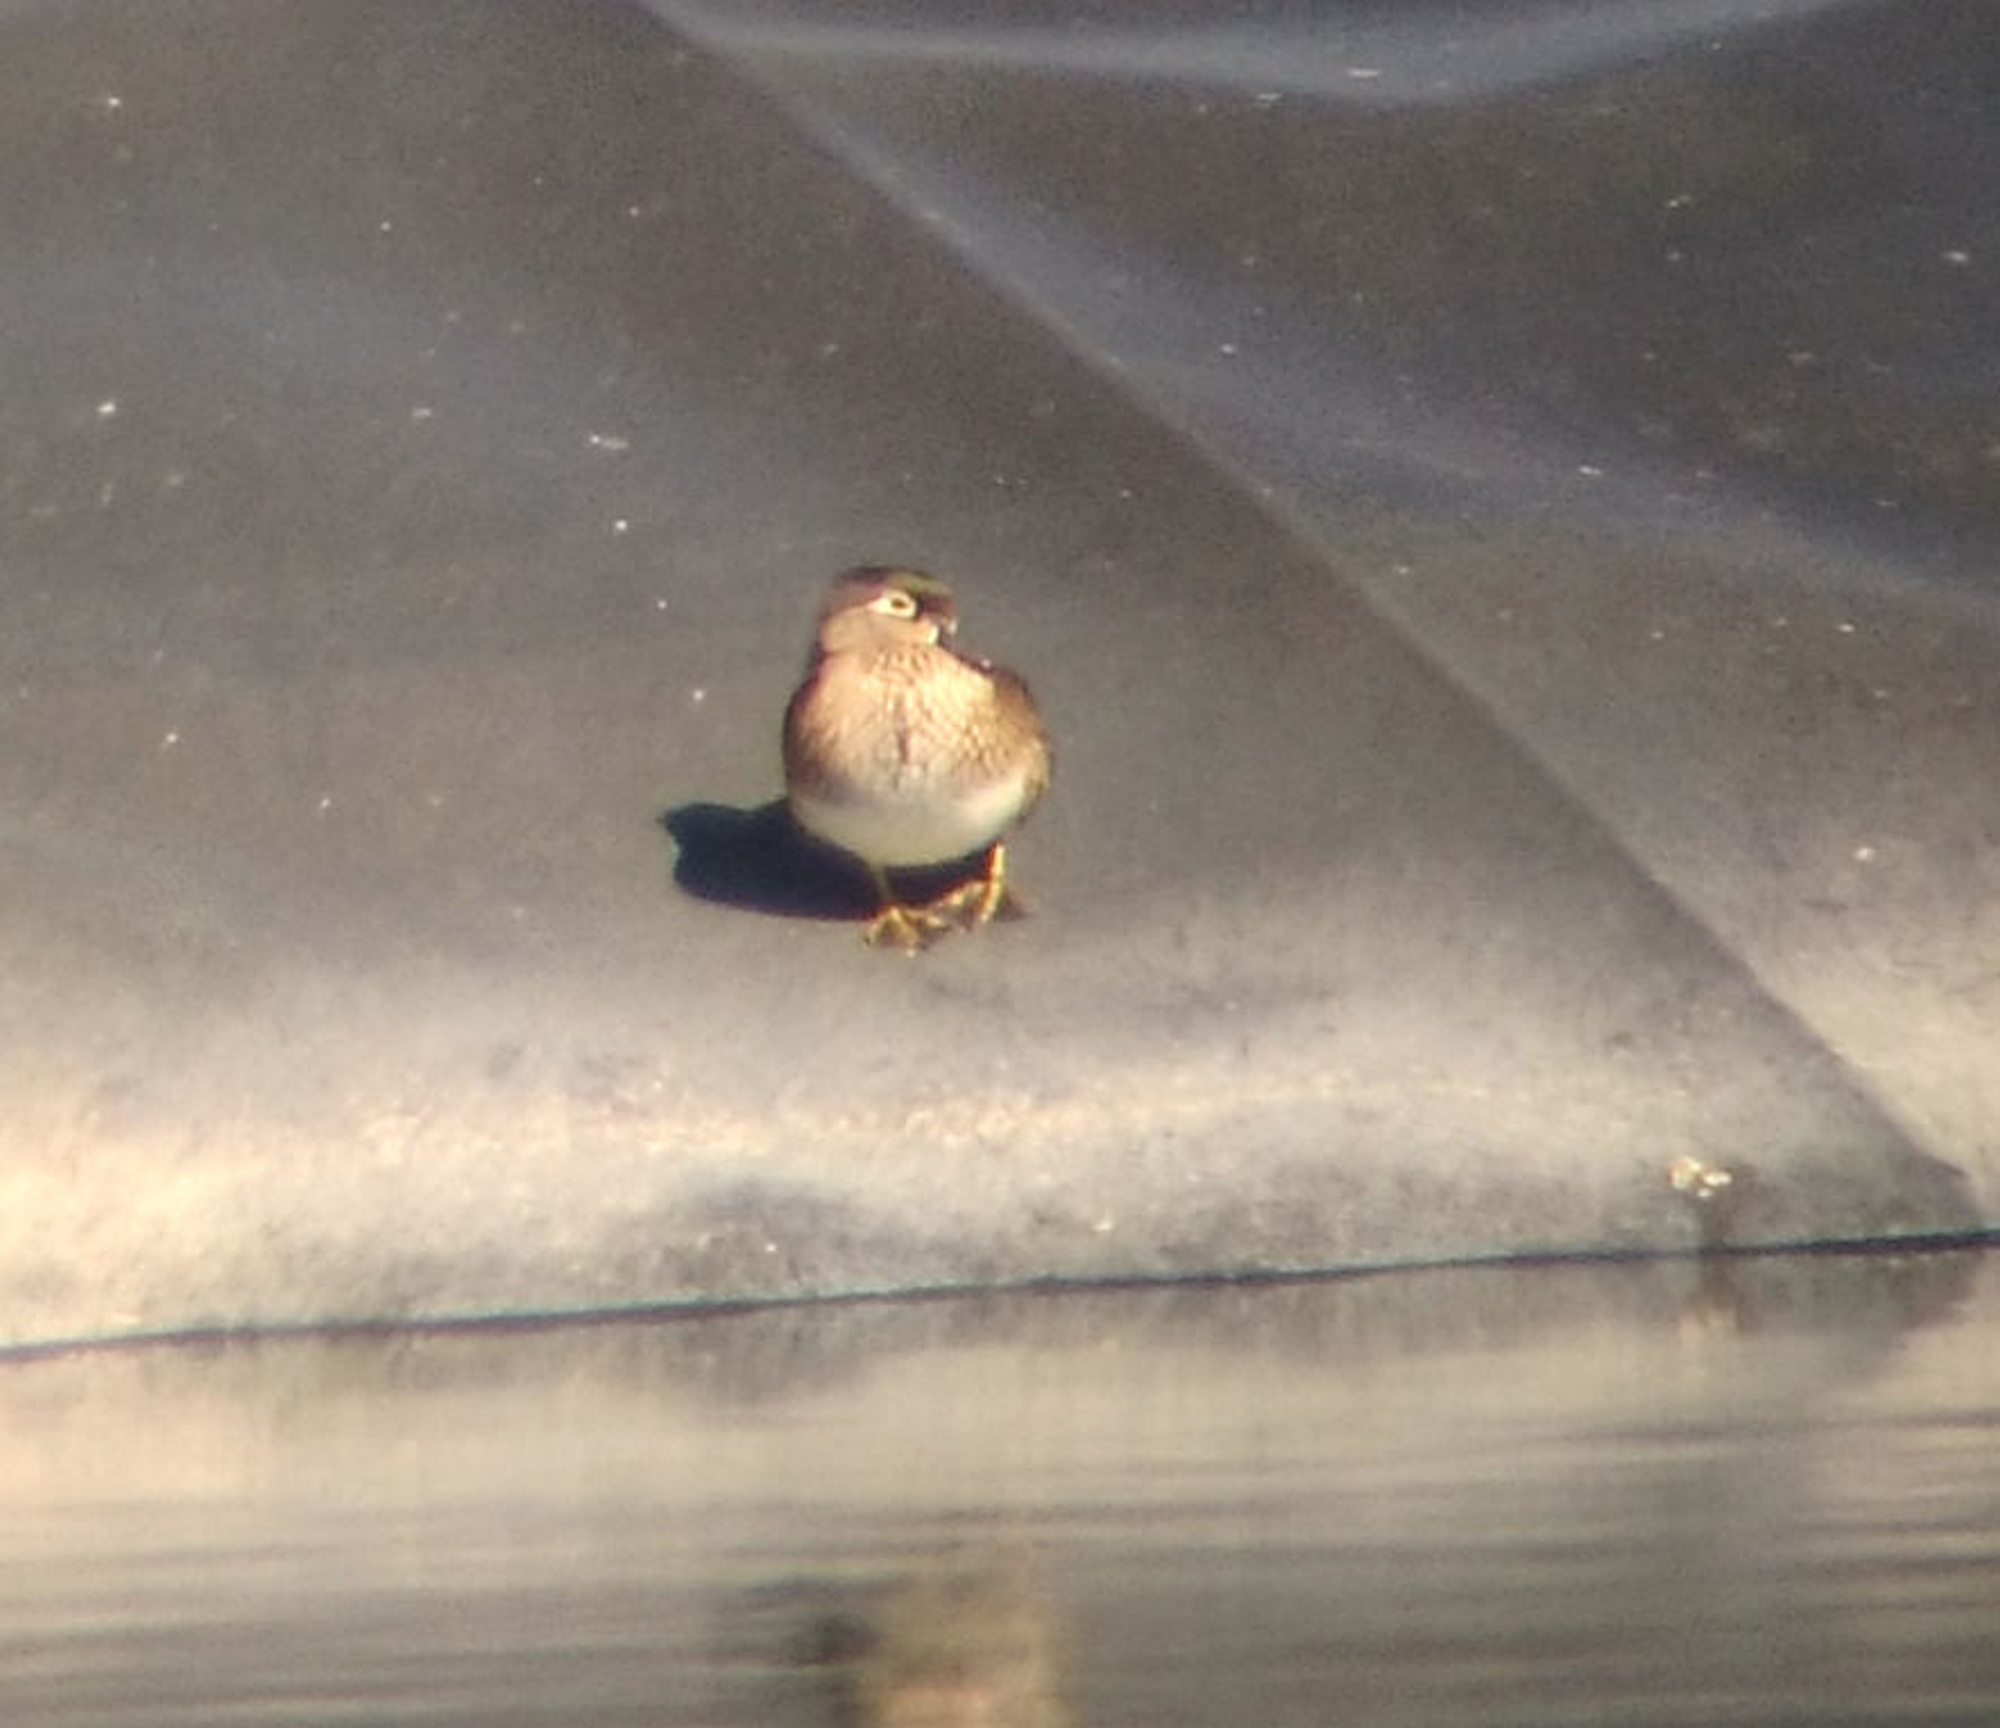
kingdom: Animalia
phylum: Chordata
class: Aves
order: Anseriformes
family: Anatidae
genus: Aix
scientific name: Aix sponsa
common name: Wood duck
